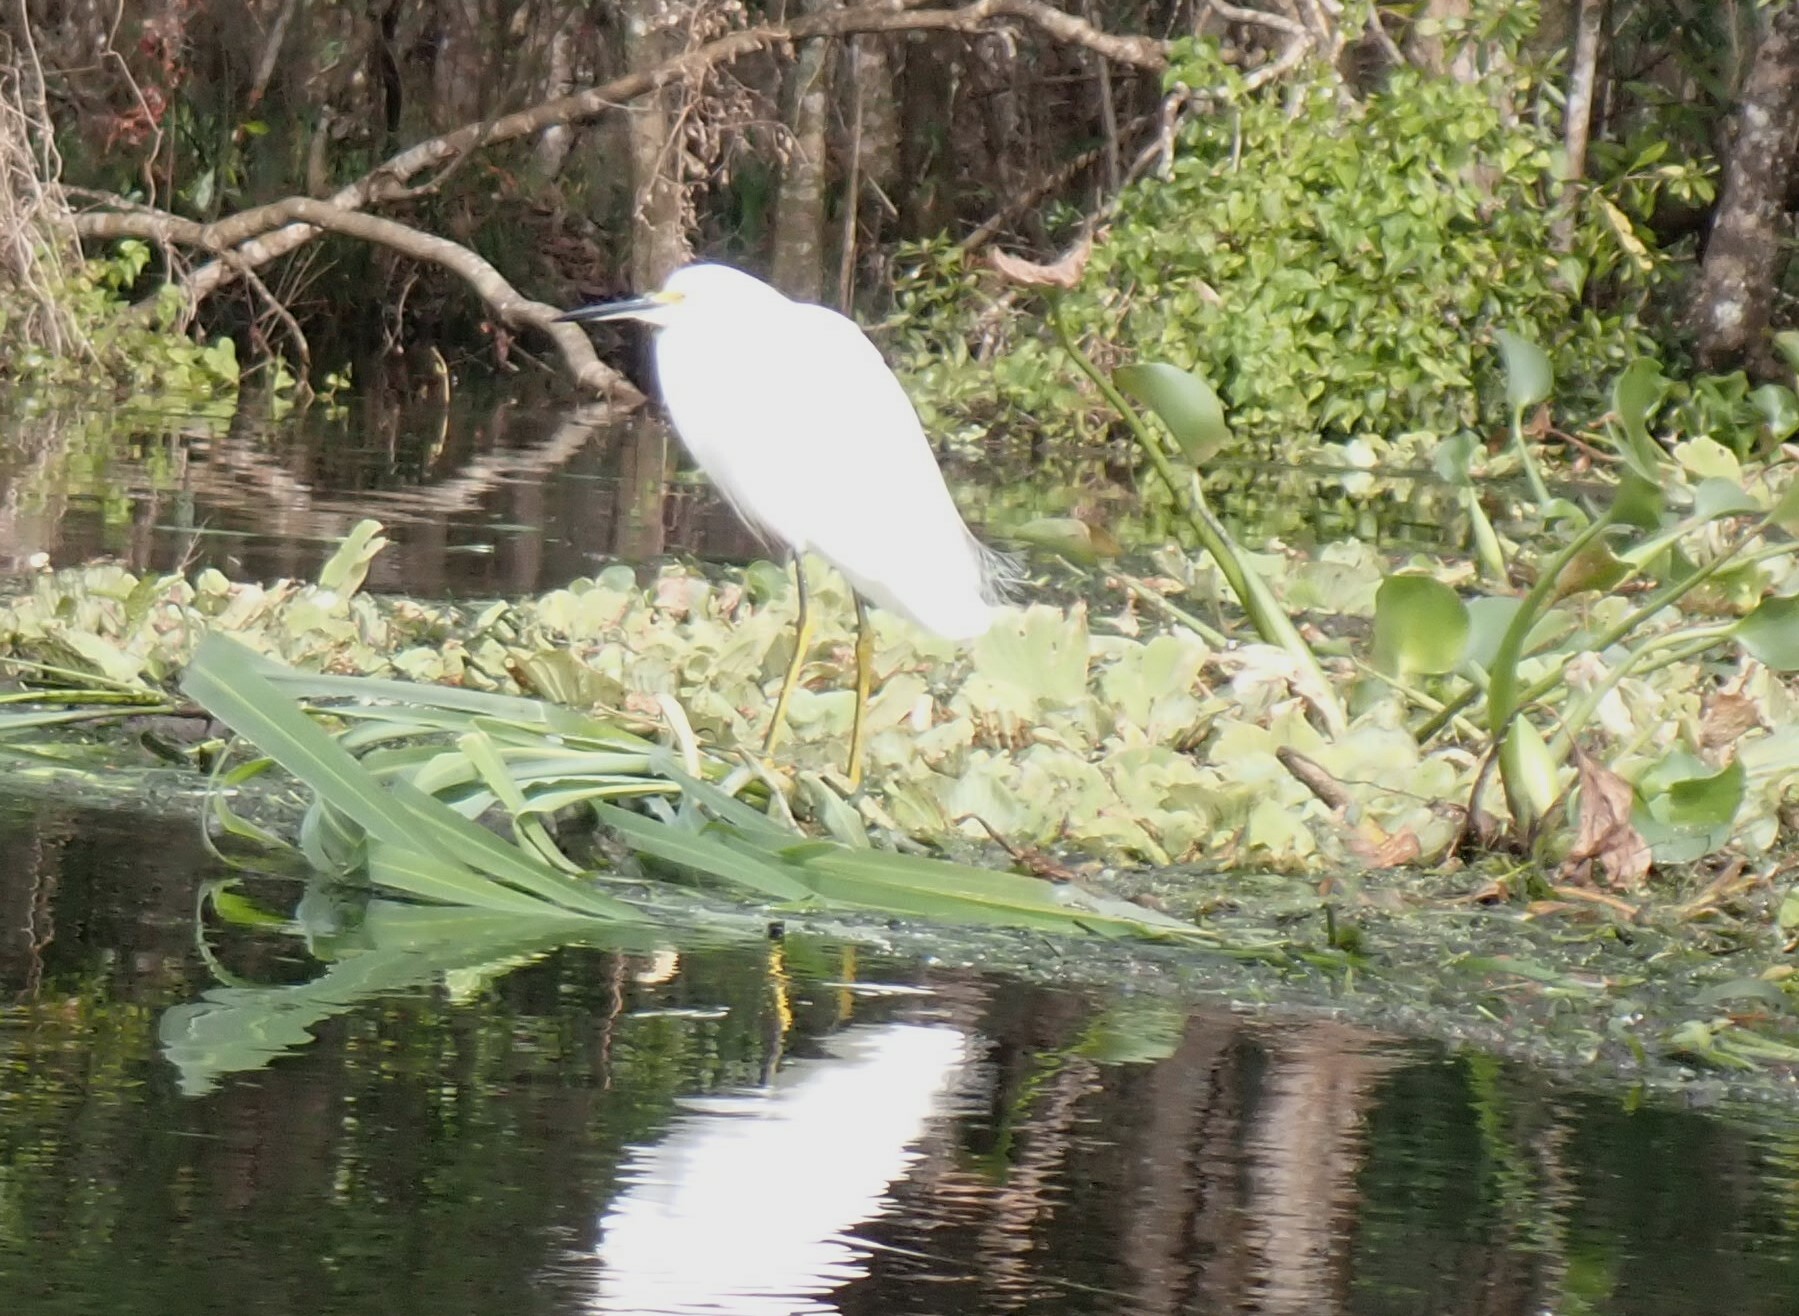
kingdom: Animalia
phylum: Chordata
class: Aves
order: Pelecaniformes
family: Ardeidae
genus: Egretta
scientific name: Egretta thula
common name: Snowy egret
